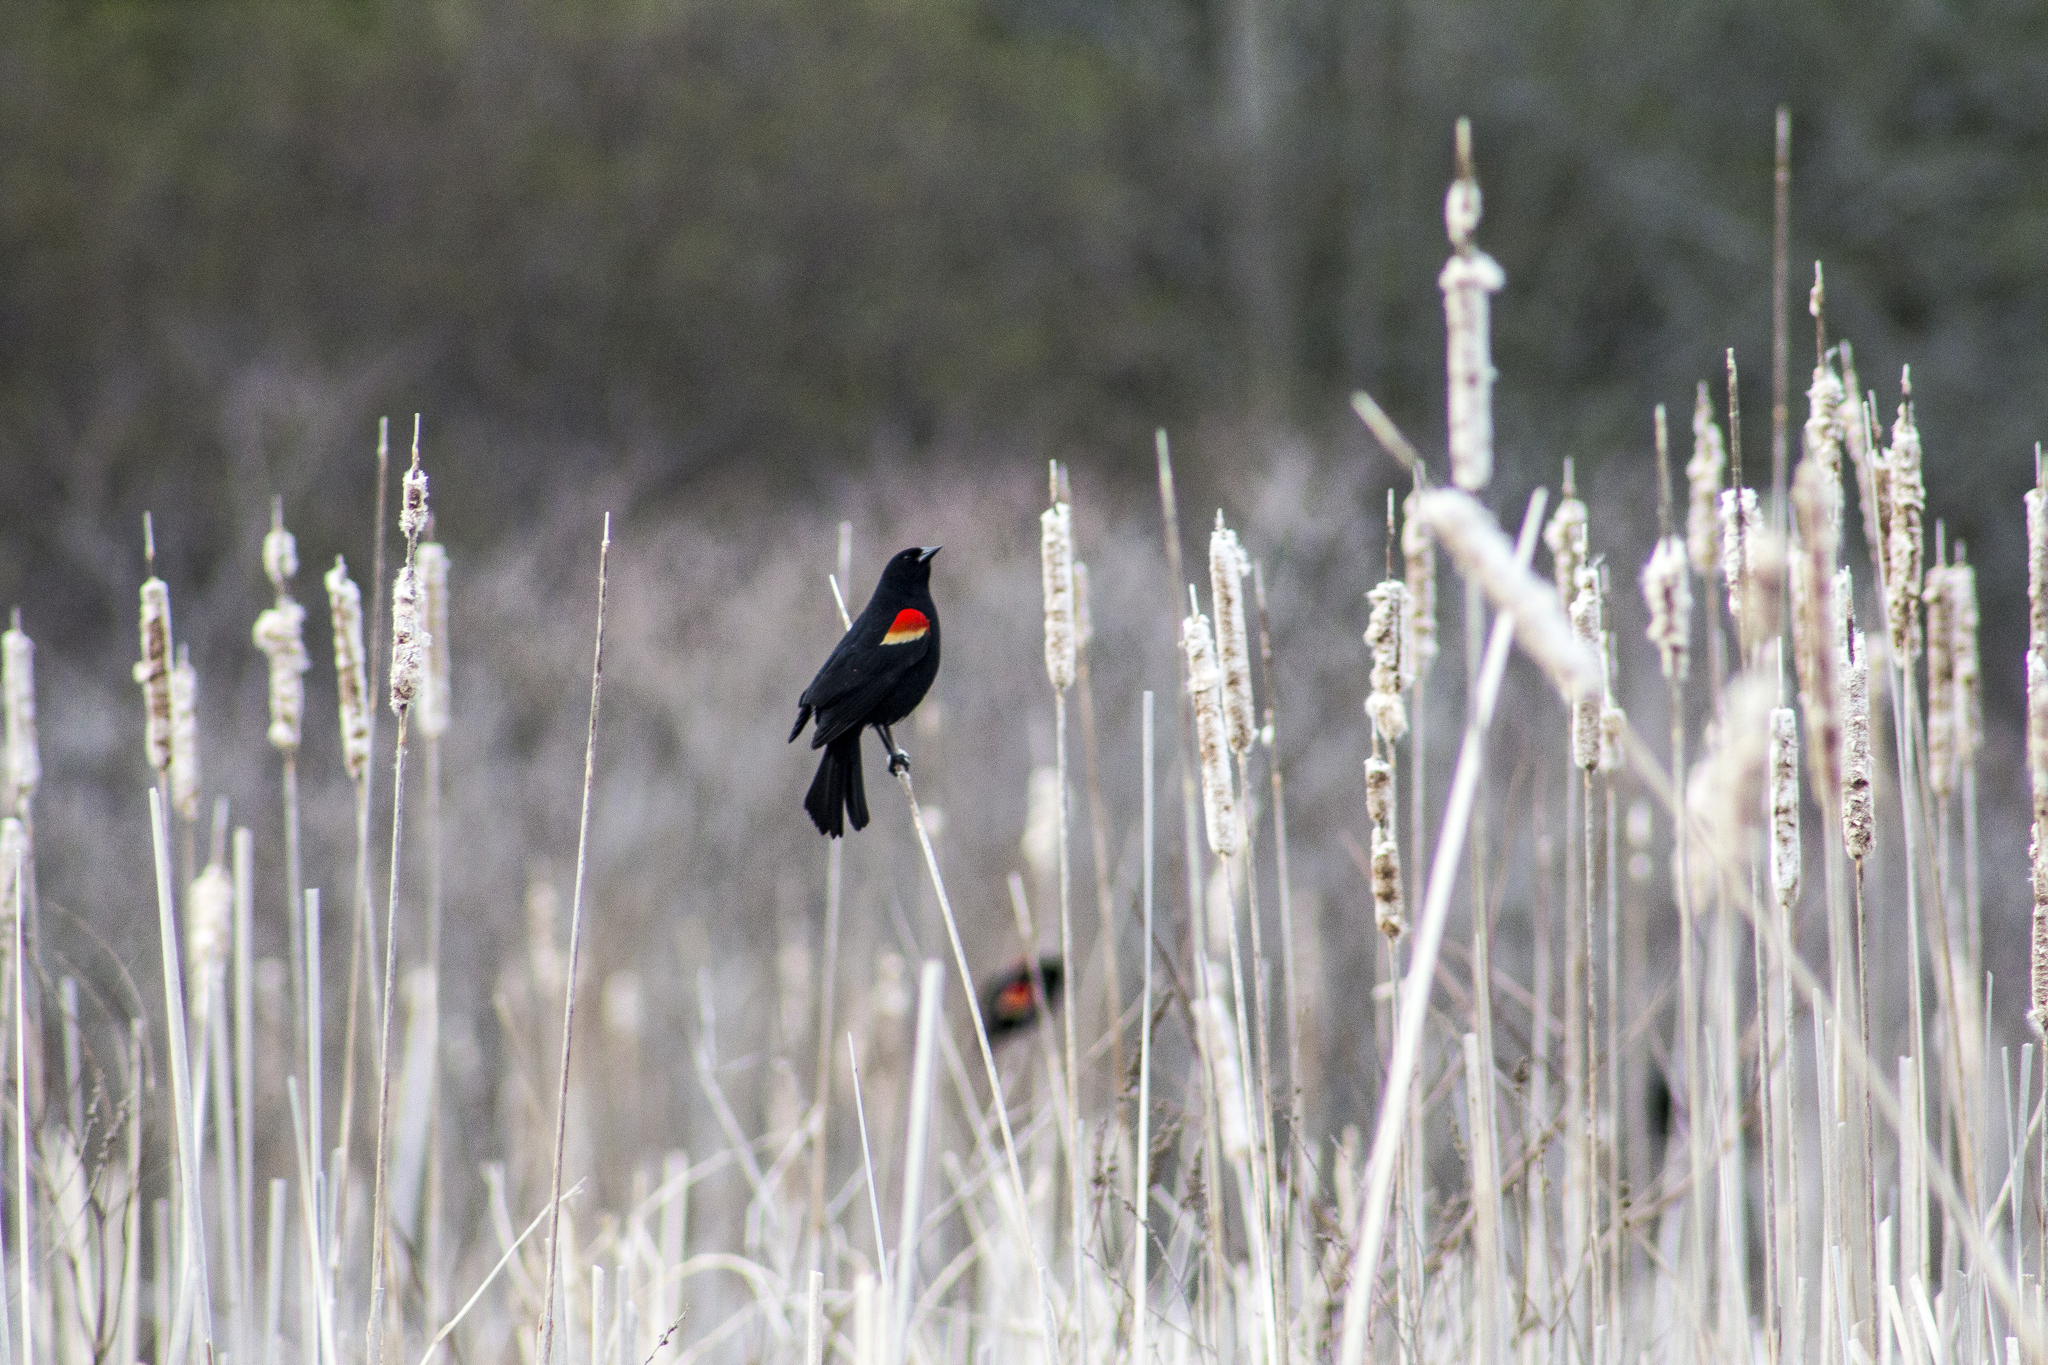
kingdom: Animalia
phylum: Chordata
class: Aves
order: Passeriformes
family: Icteridae
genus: Agelaius
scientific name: Agelaius phoeniceus
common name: Red-winged blackbird
